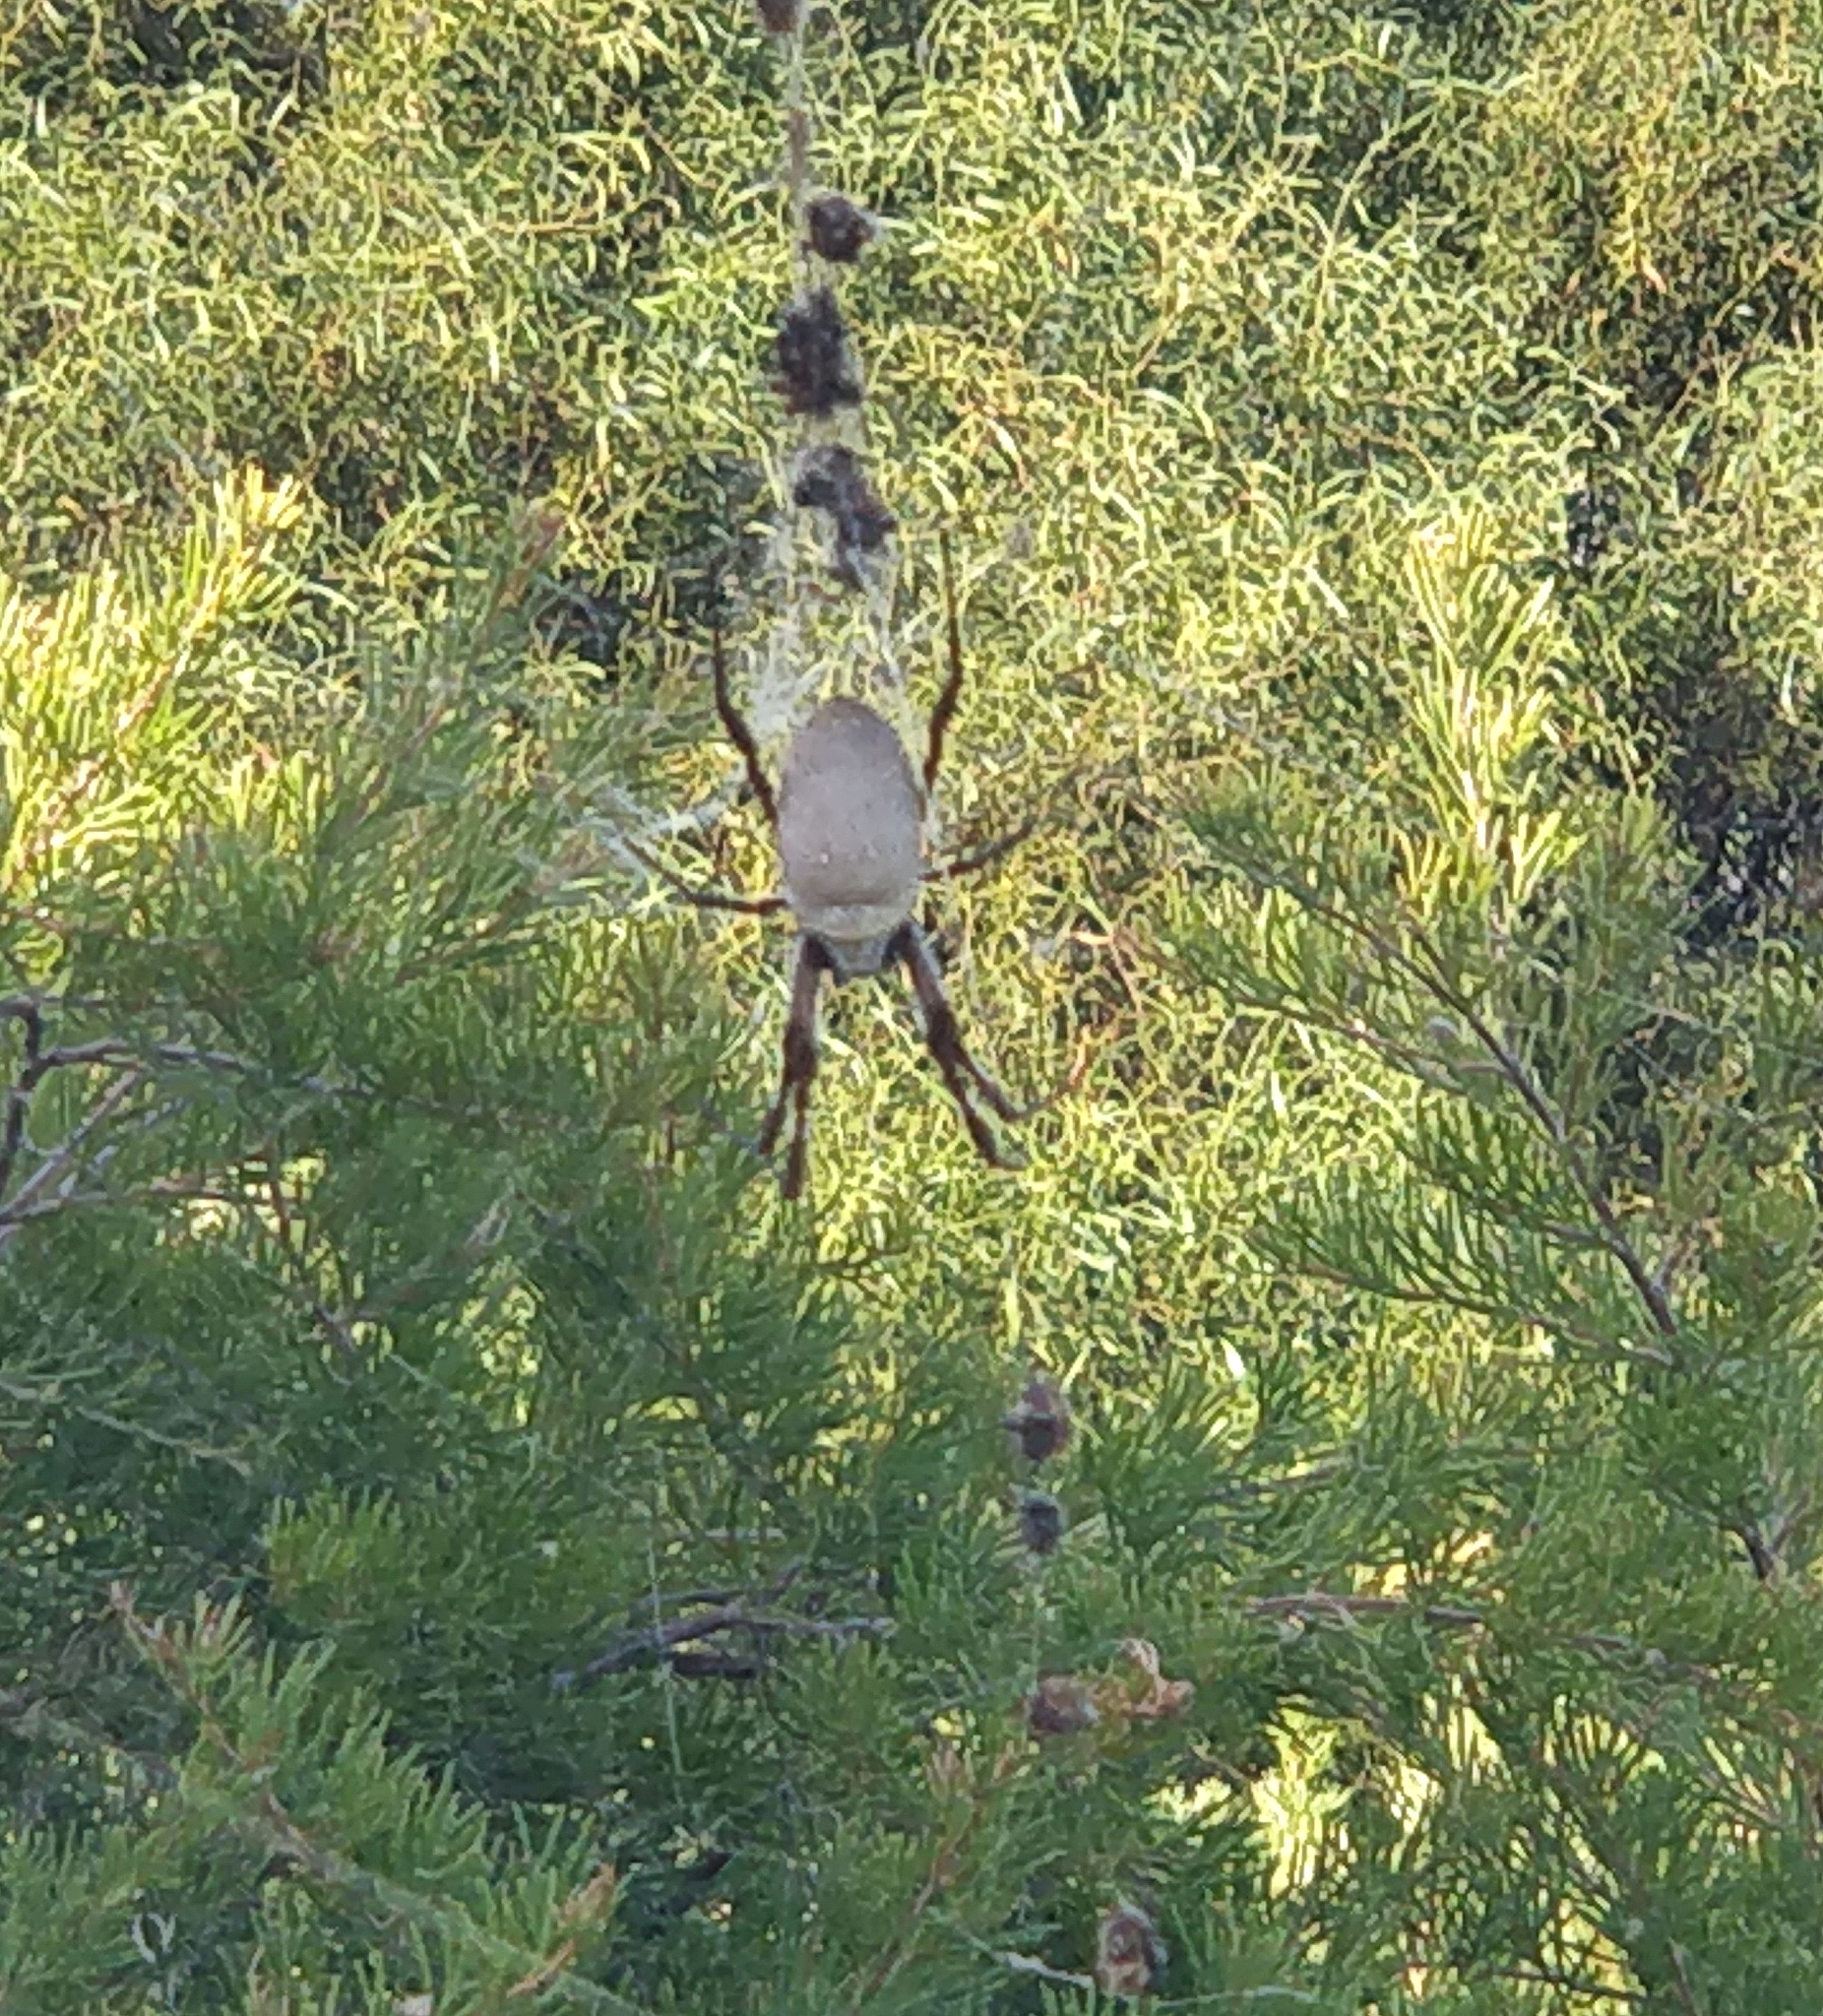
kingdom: Animalia
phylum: Arthropoda
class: Arachnida
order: Araneae
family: Araneidae
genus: Trichonephila
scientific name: Trichonephila edulis
